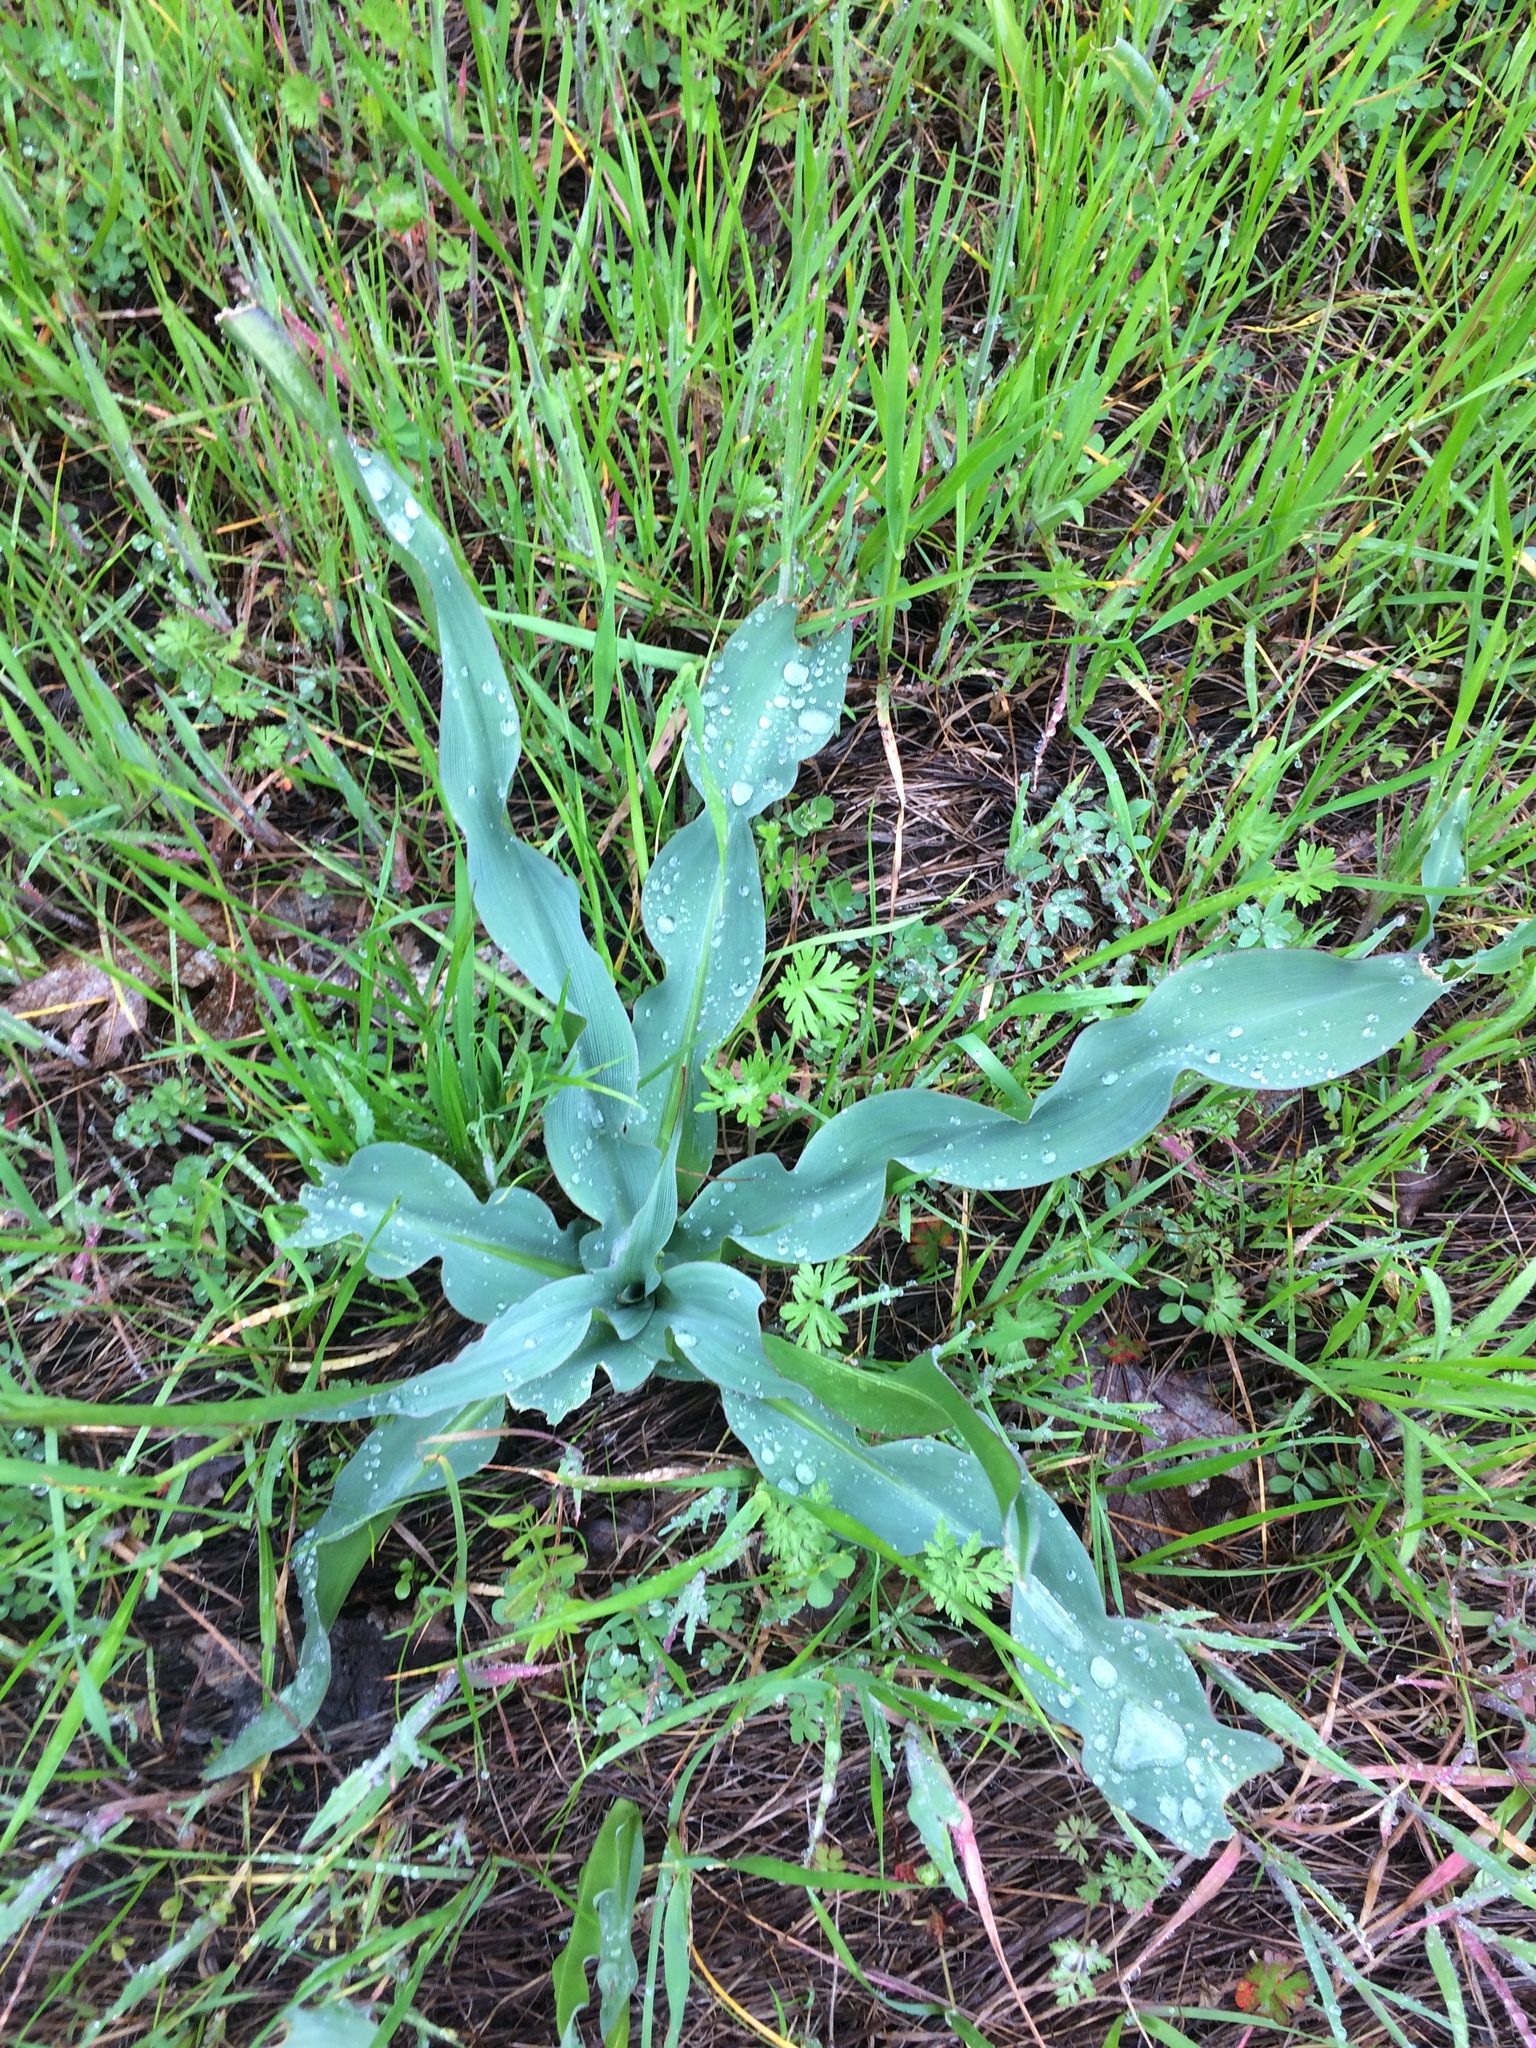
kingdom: Plantae
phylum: Tracheophyta
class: Liliopsida
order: Asparagales
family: Asparagaceae
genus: Chlorogalum
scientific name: Chlorogalum pomeridianum
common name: Amole
